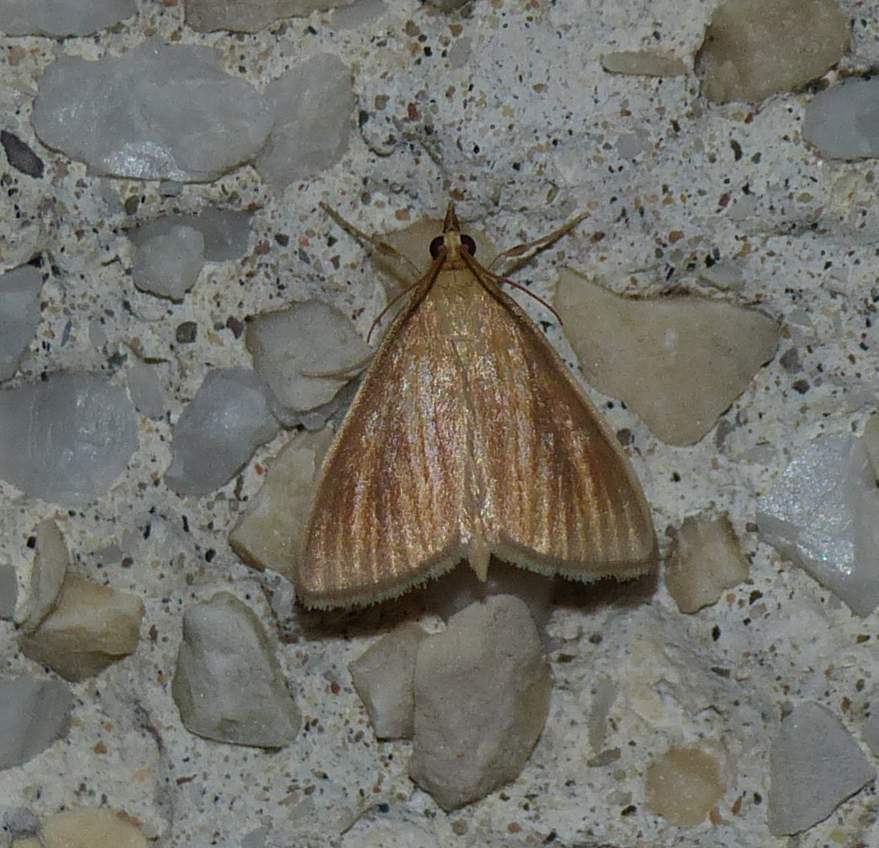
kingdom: Animalia
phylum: Arthropoda
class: Insecta
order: Lepidoptera
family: Crambidae
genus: Nascia
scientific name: Nascia acutellus
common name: Streaked orange moth
